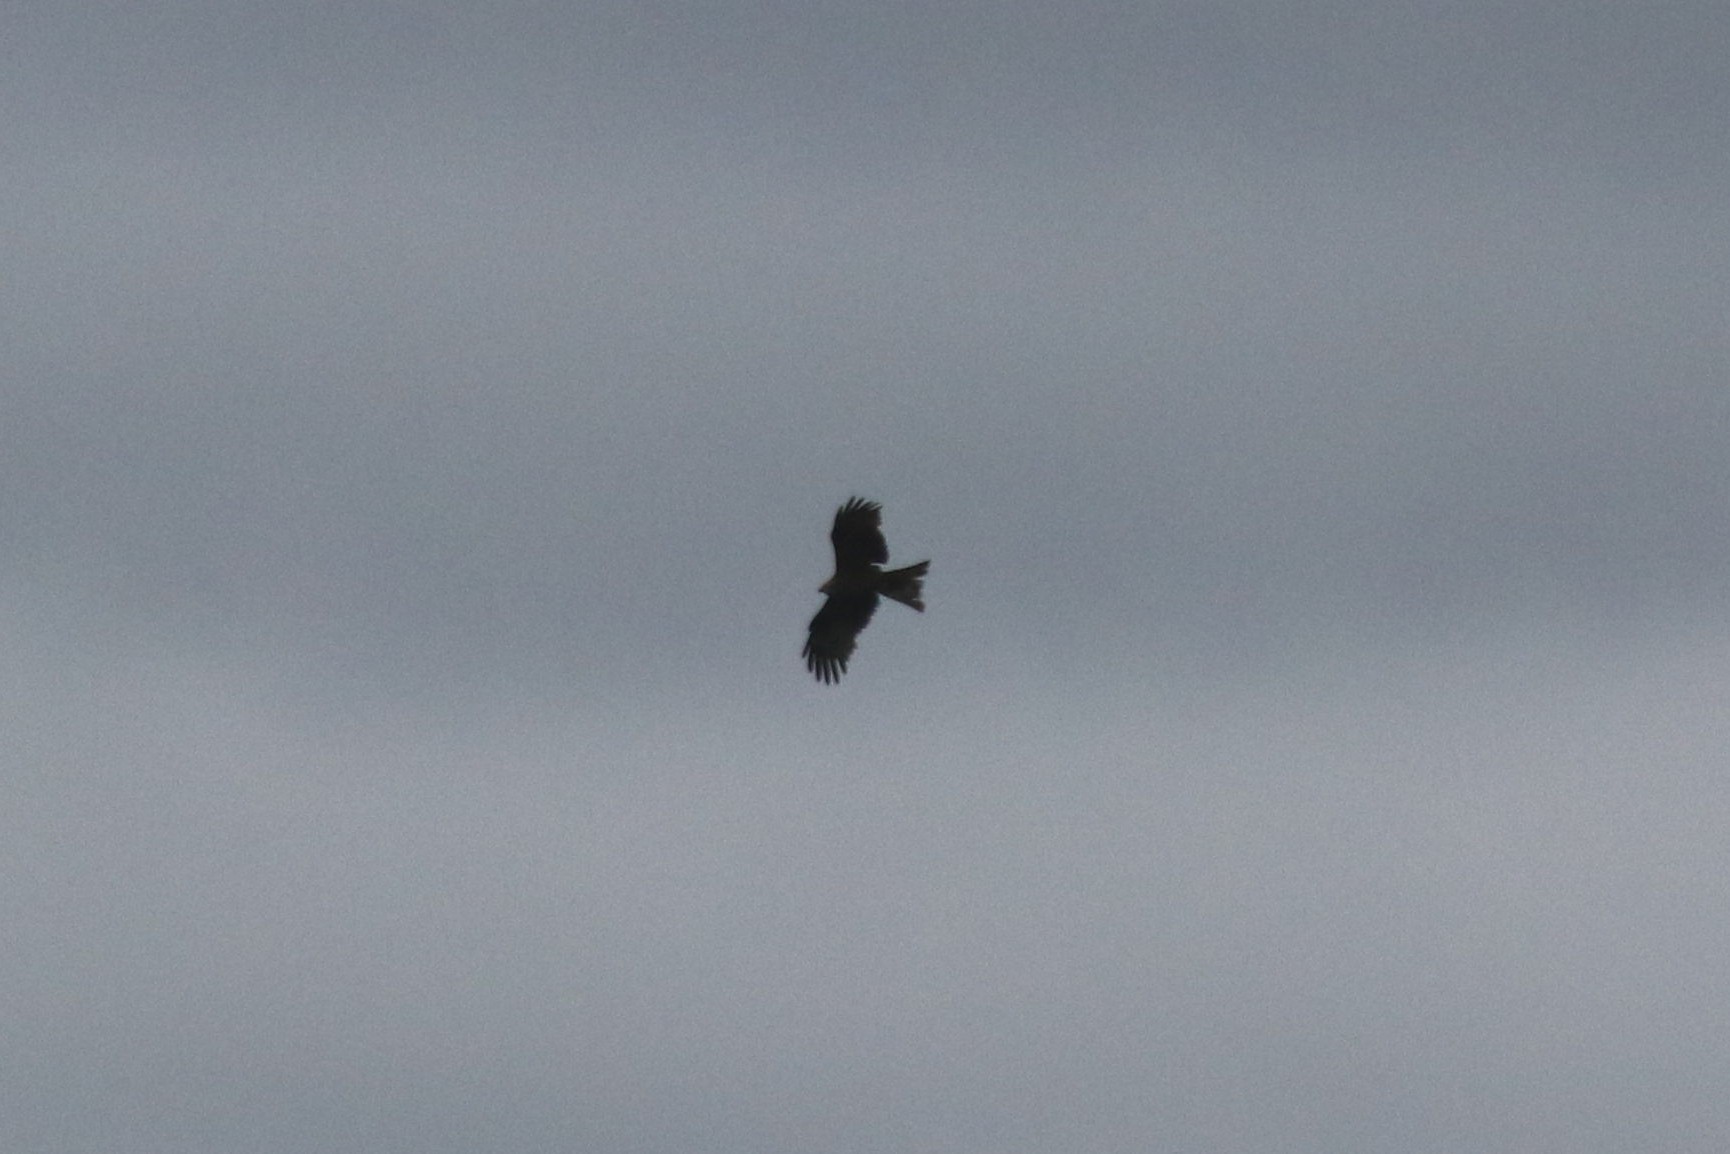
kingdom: Animalia
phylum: Chordata
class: Aves
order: Accipitriformes
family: Accipitridae
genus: Milvus
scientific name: Milvus migrans
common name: Black kite
